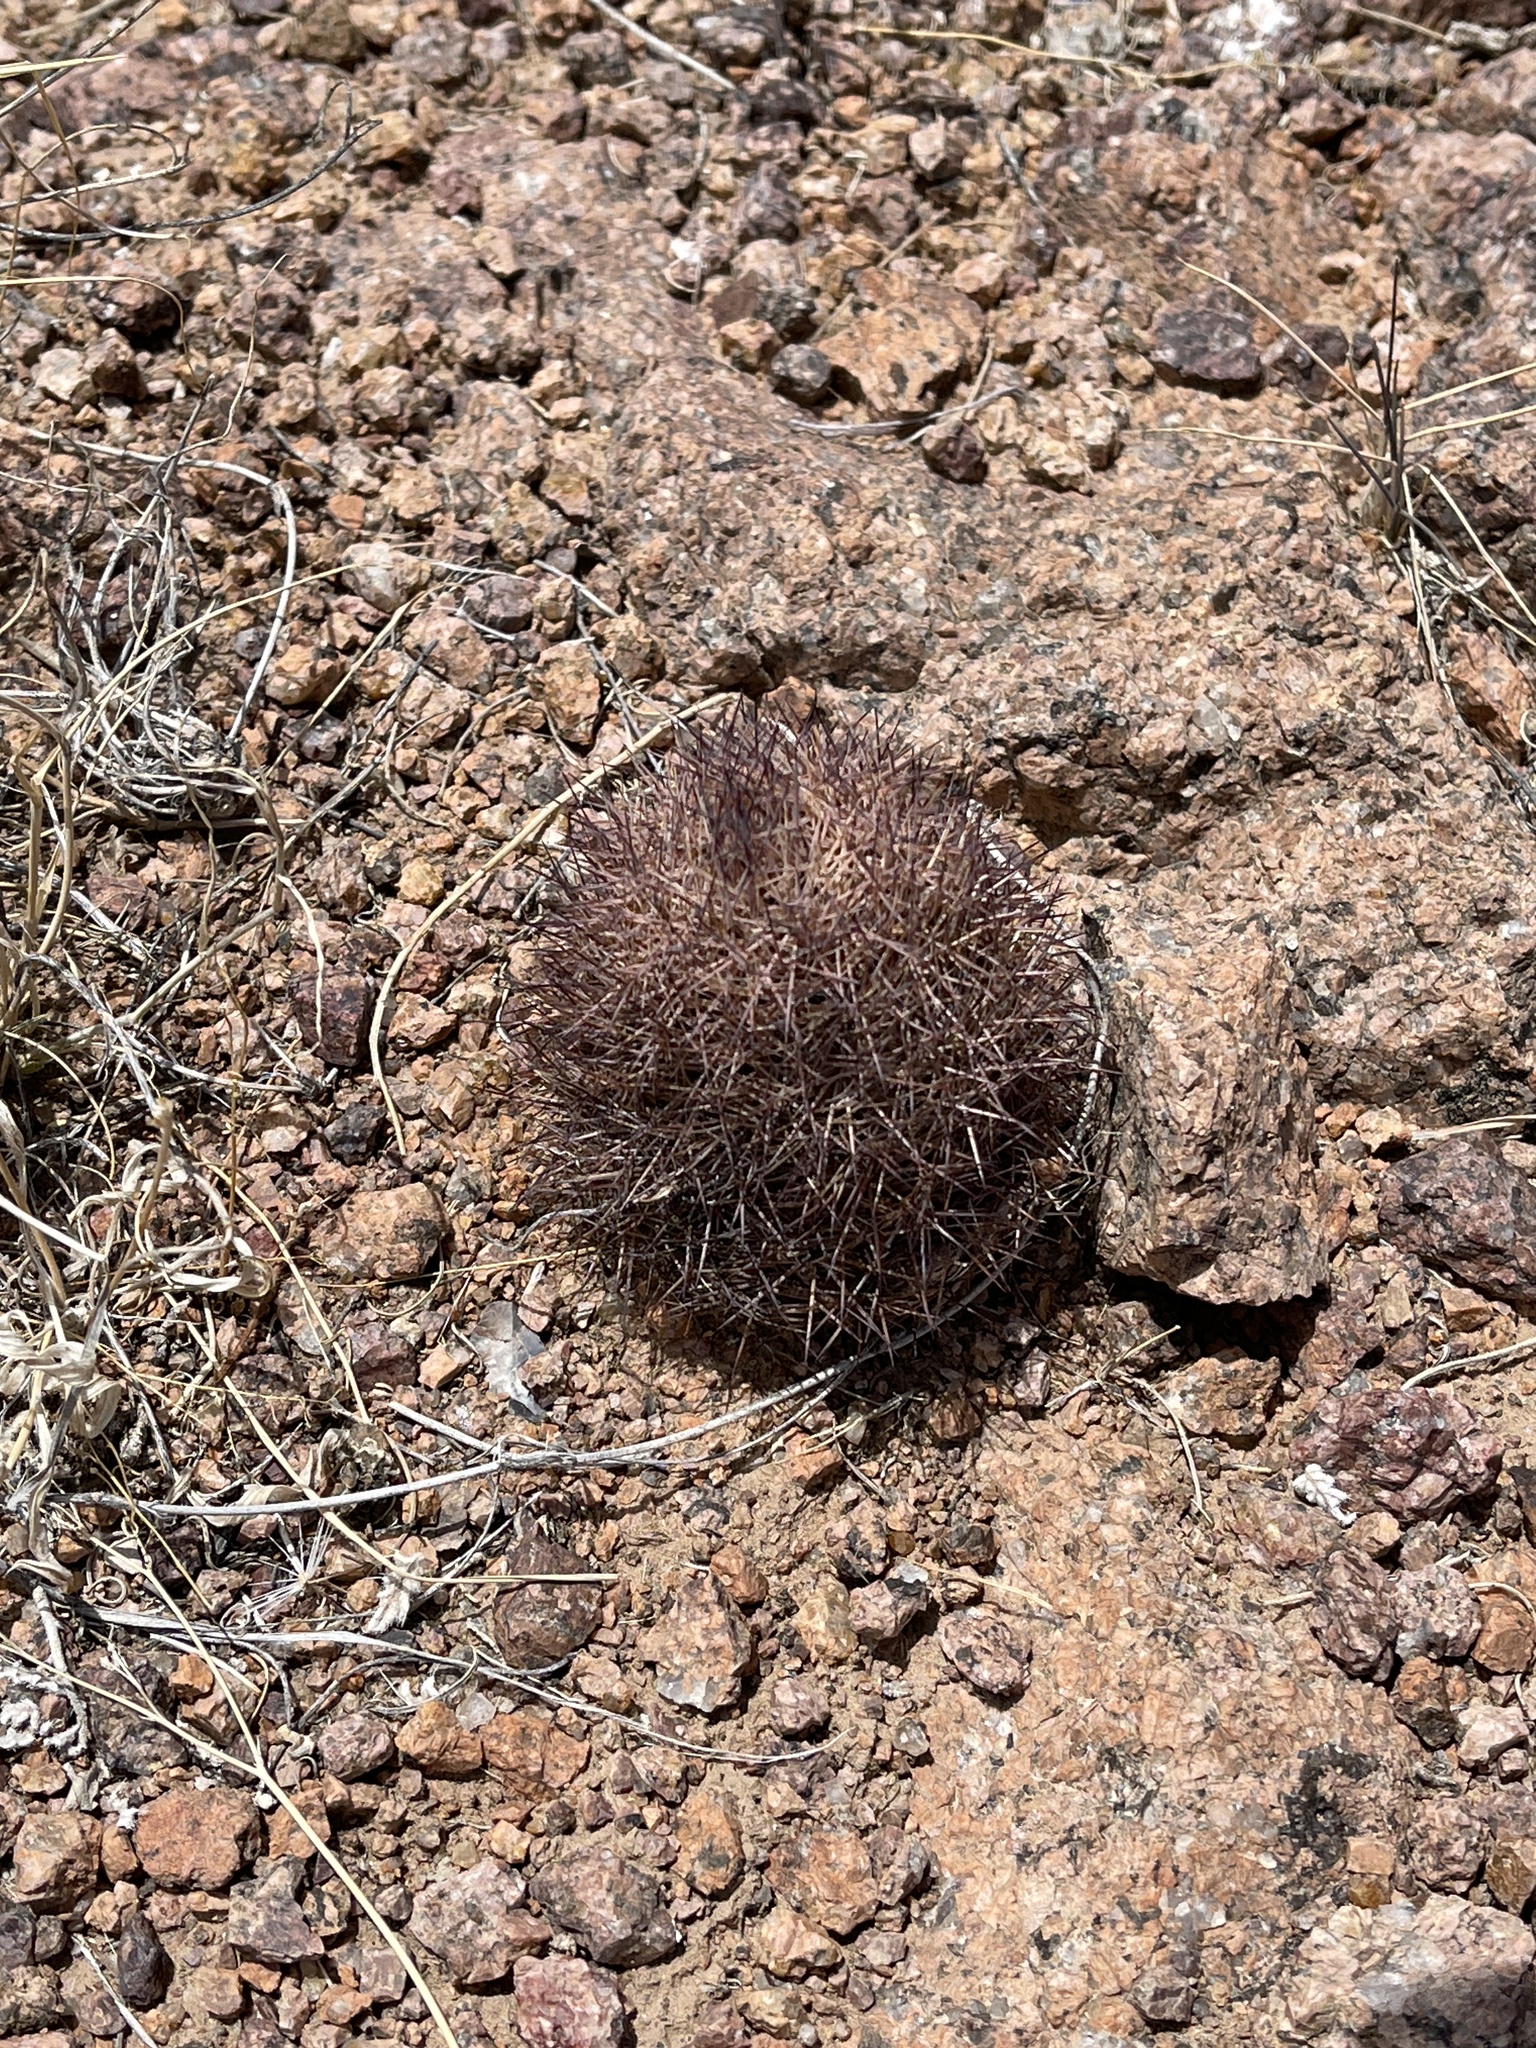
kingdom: Plantae
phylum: Tracheophyta
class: Magnoliopsida
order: Caryophyllales
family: Cactaceae
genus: Sclerocactus
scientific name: Sclerocactus intertextus
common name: White fish-hook cactus
